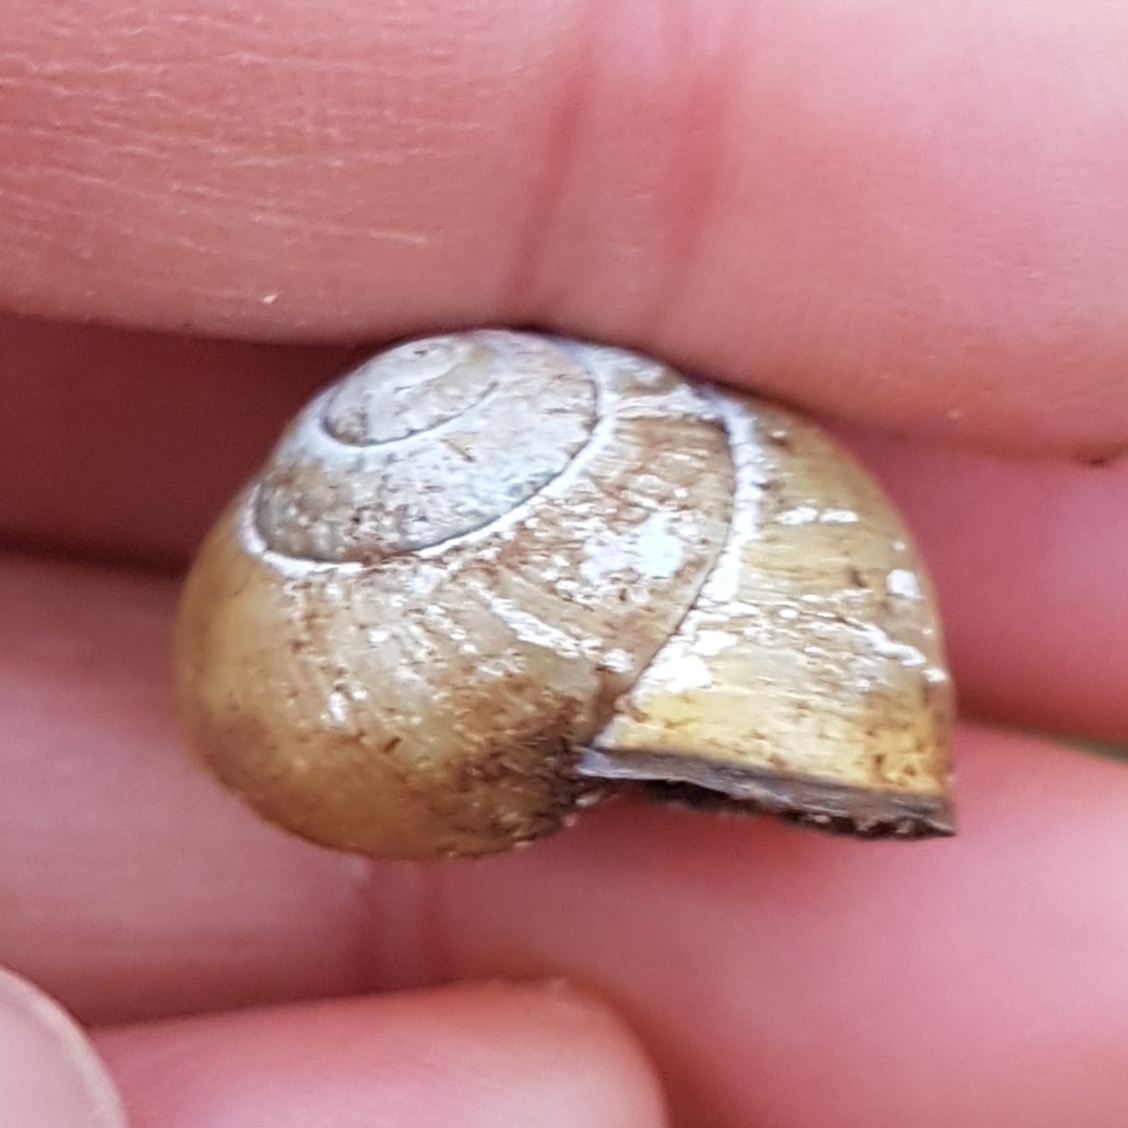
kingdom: Animalia
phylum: Mollusca
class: Gastropoda
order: Stylommatophora
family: Helicidae
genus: Cepaea
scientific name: Cepaea nemoralis
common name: Grovesnail
